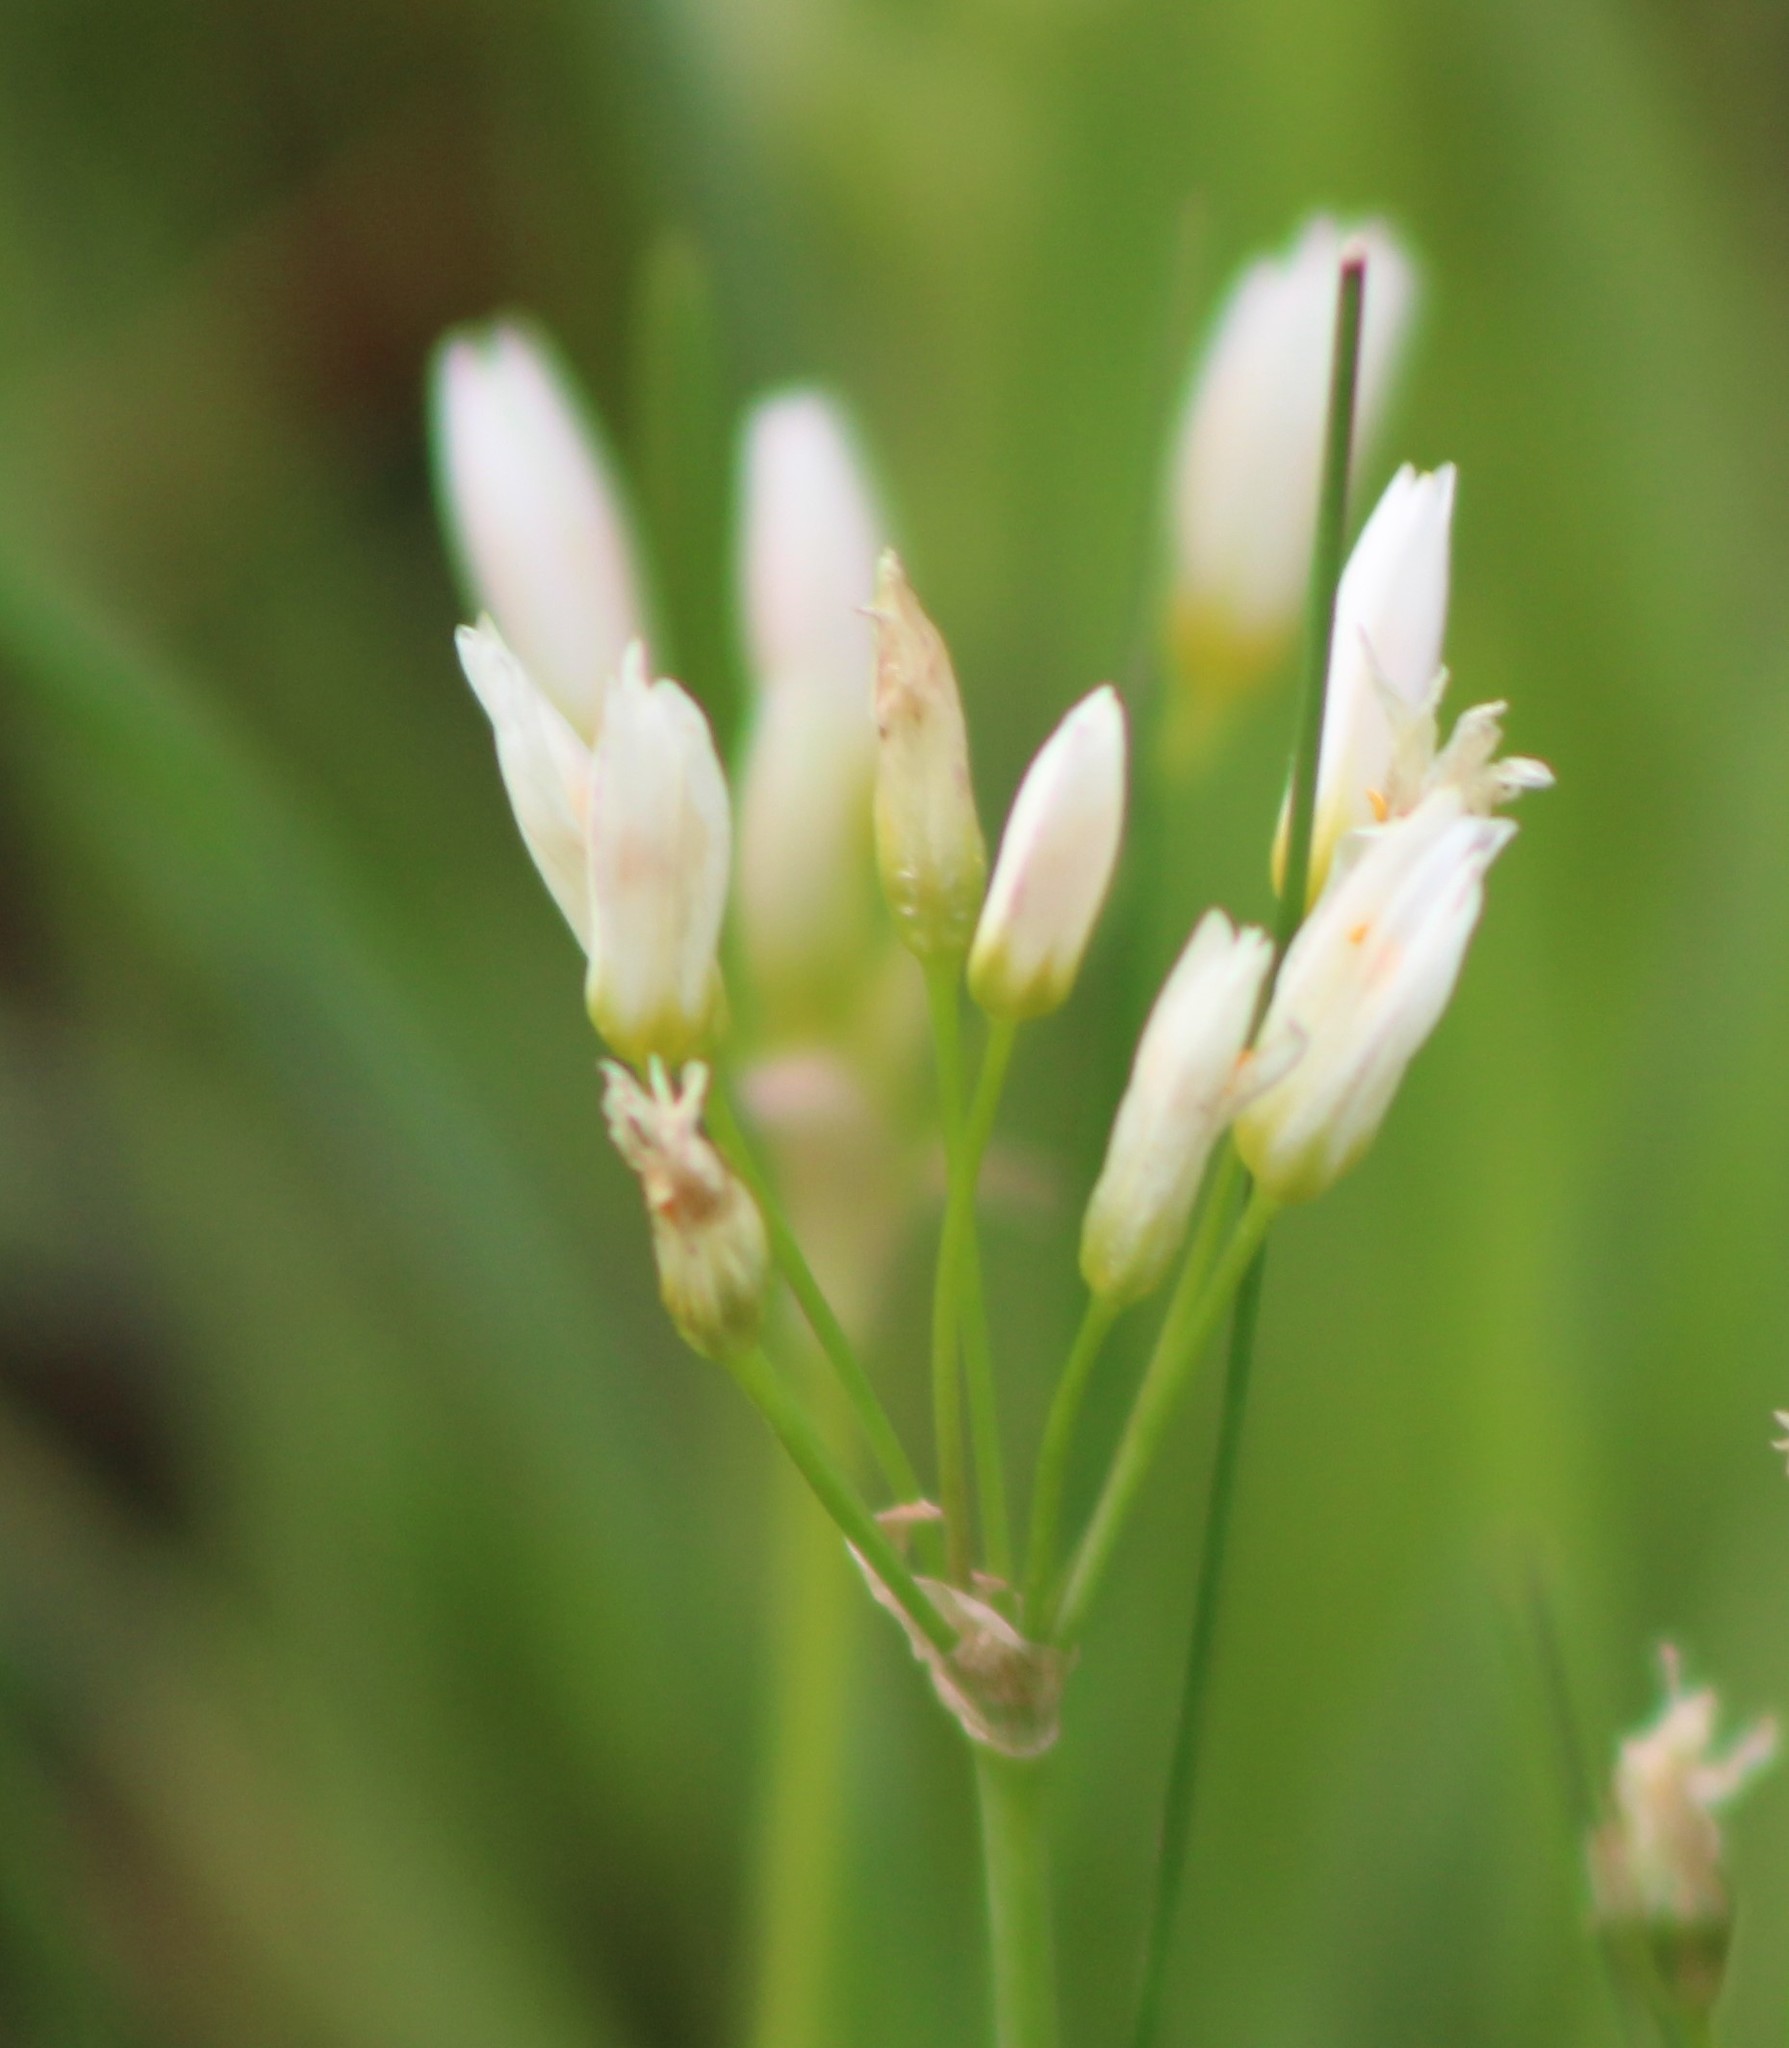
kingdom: Plantae
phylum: Tracheophyta
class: Liliopsida
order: Asparagales
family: Amaryllidaceae
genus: Nothoscordum
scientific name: Nothoscordum bivalve
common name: Crow-poison
